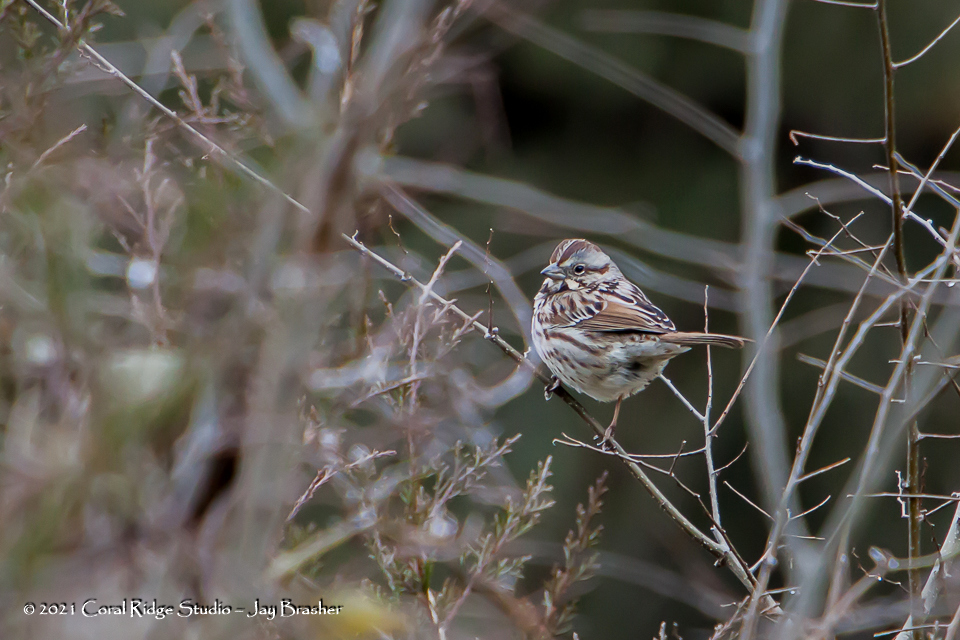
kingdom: Animalia
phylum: Chordata
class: Aves
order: Passeriformes
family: Passerellidae
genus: Melospiza
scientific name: Melospiza melodia
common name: Song sparrow
